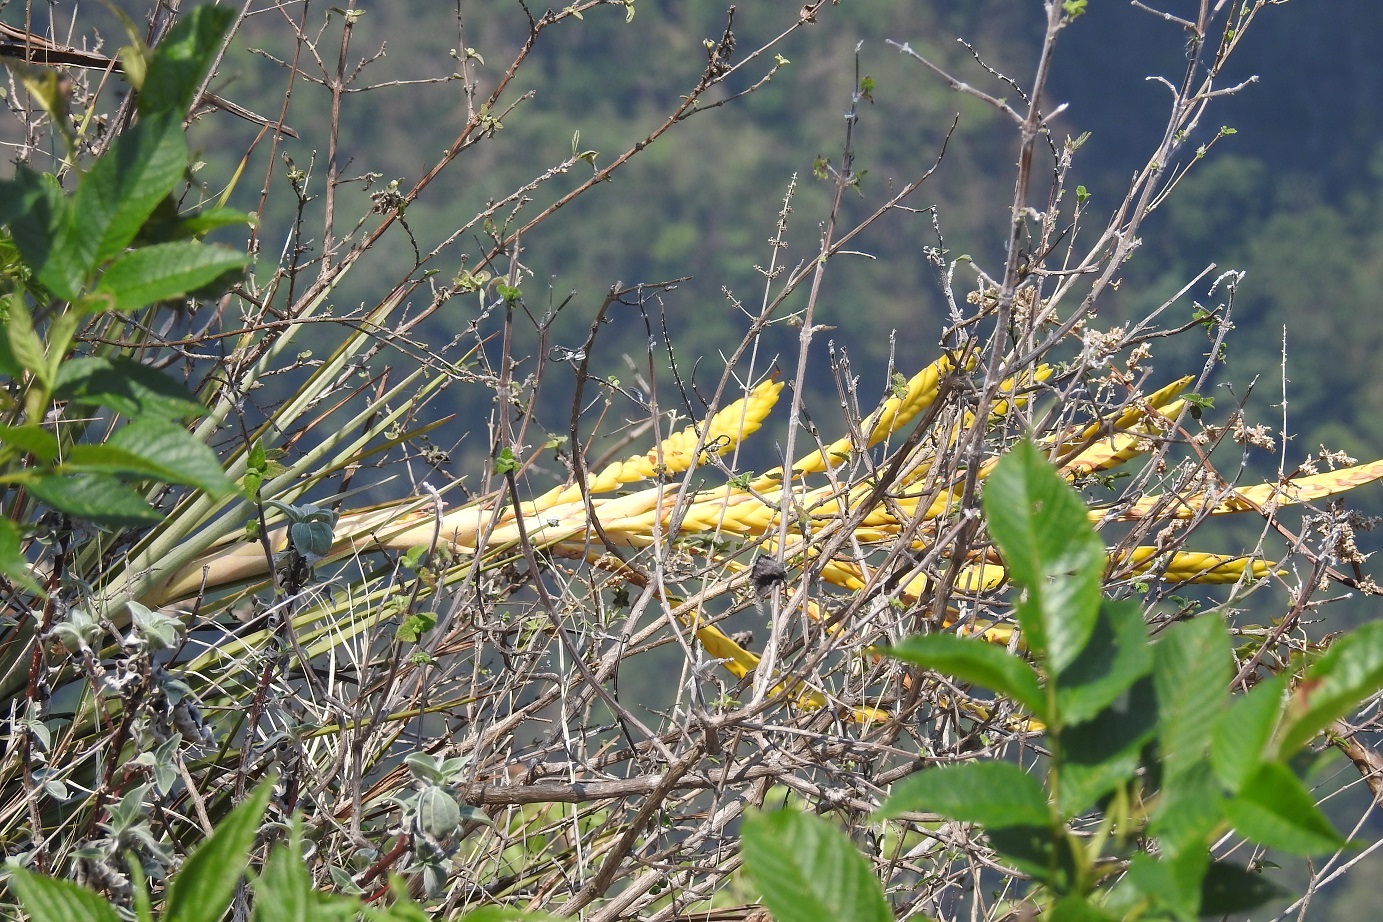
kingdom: Plantae
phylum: Tracheophyta
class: Liliopsida
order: Poales
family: Bromeliaceae
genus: Tillandsia
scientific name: Tillandsia rodrigueziana
